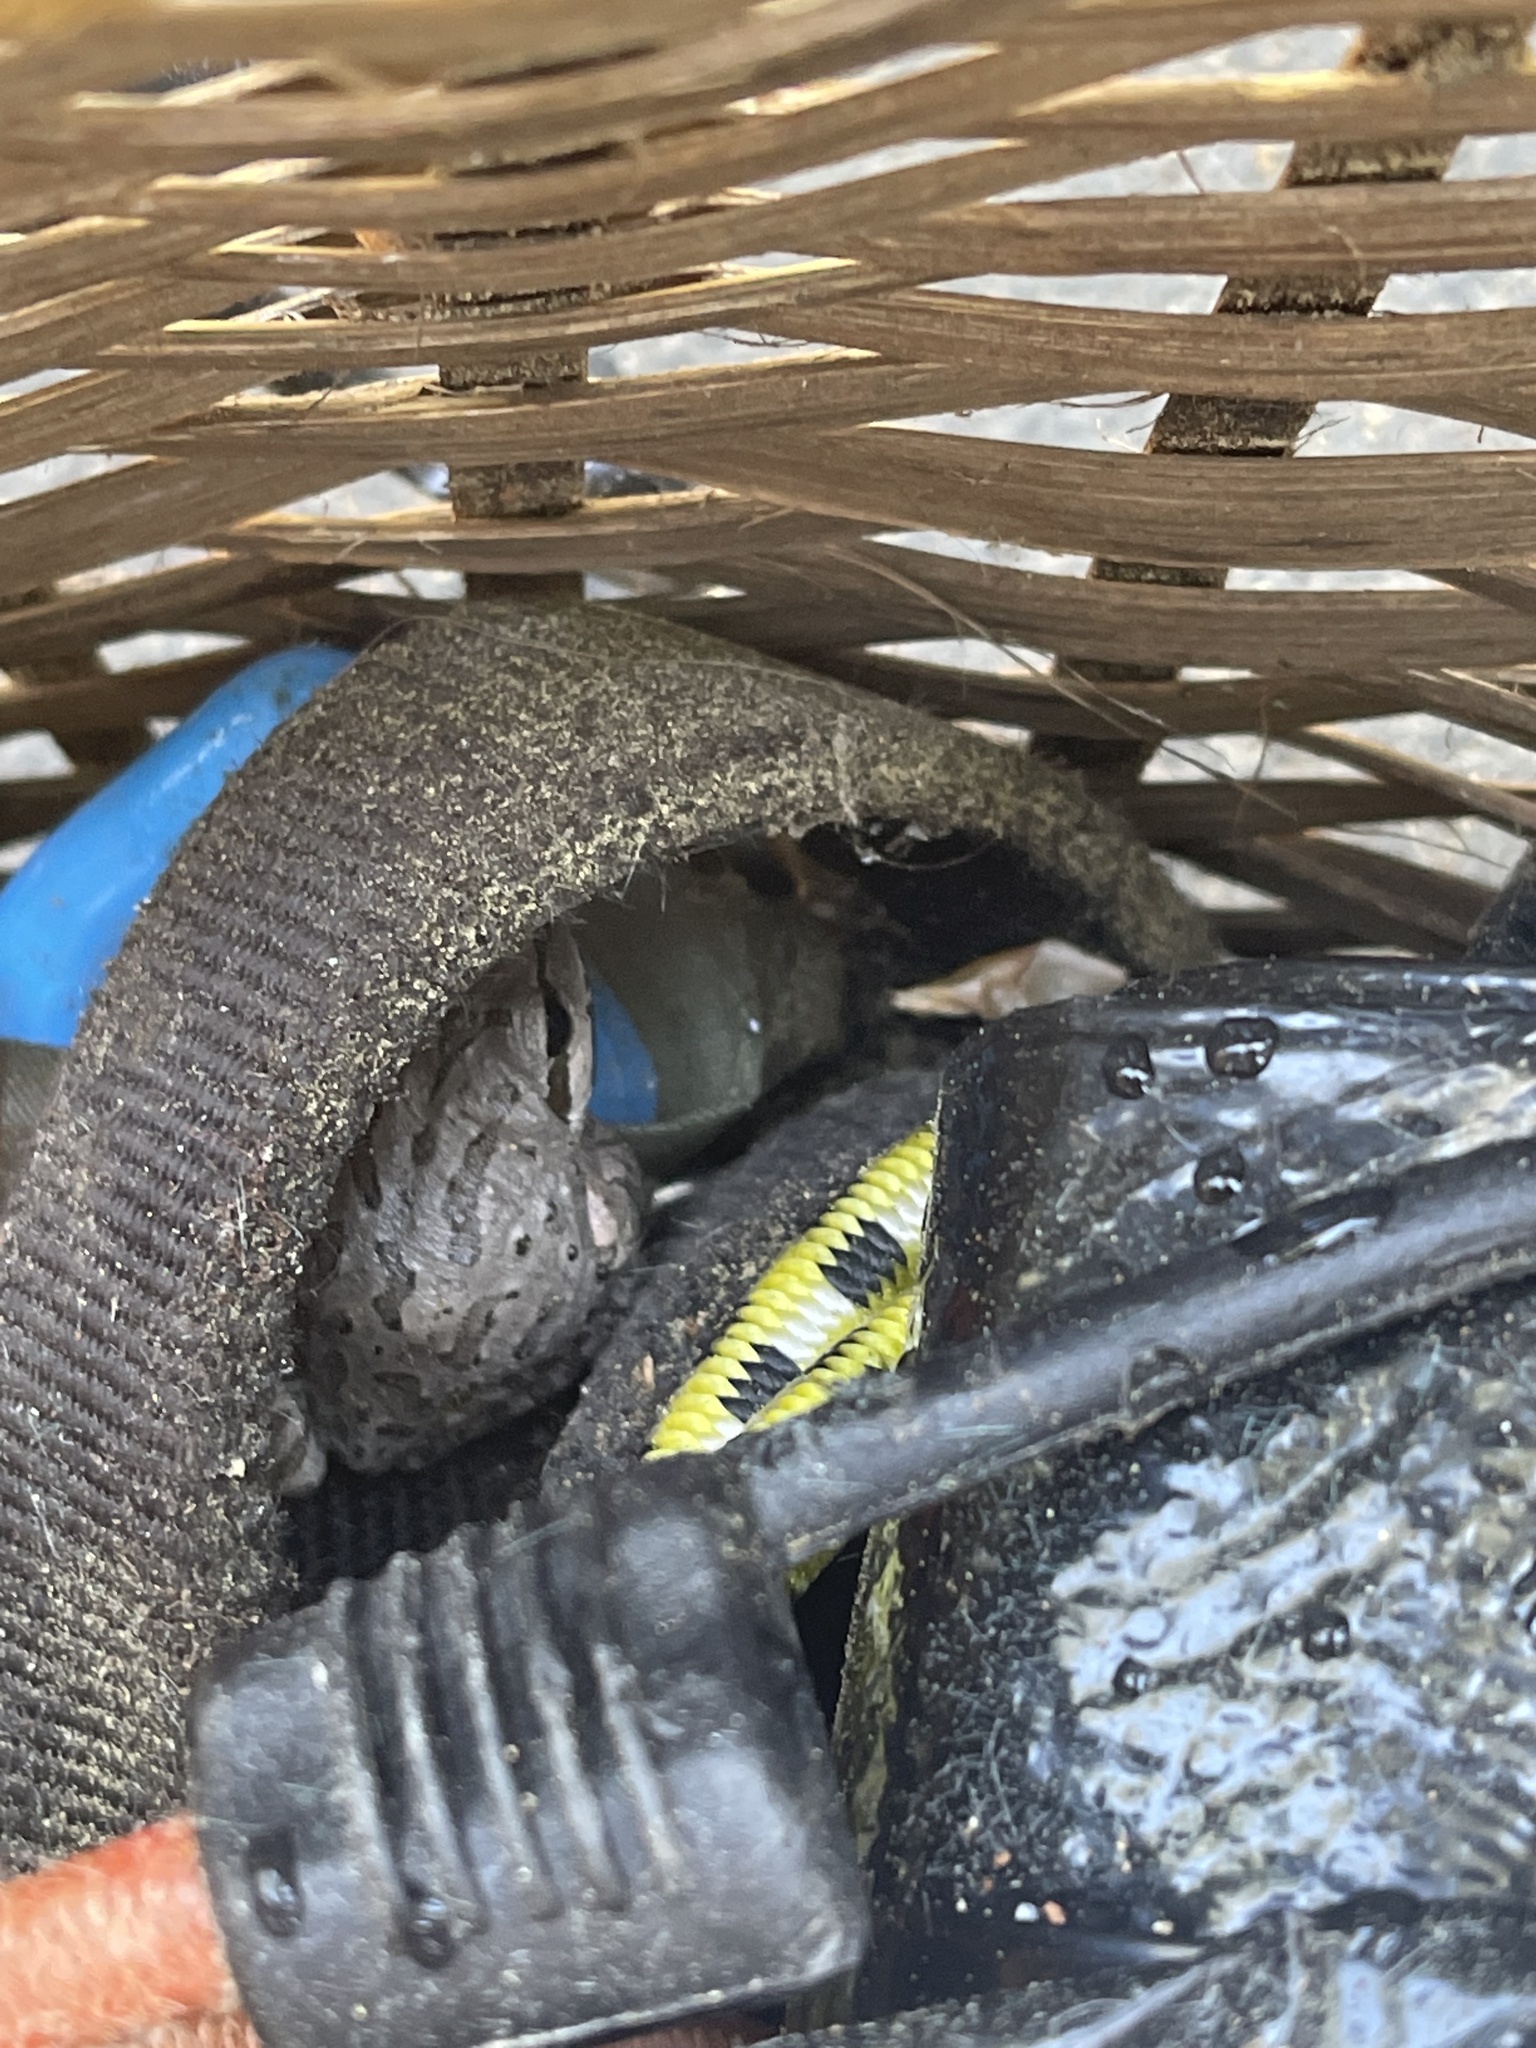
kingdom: Animalia
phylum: Chordata
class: Amphibia
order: Anura
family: Hylidae
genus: Pseudacris
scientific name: Pseudacris regilla
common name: Pacific chorus frog
